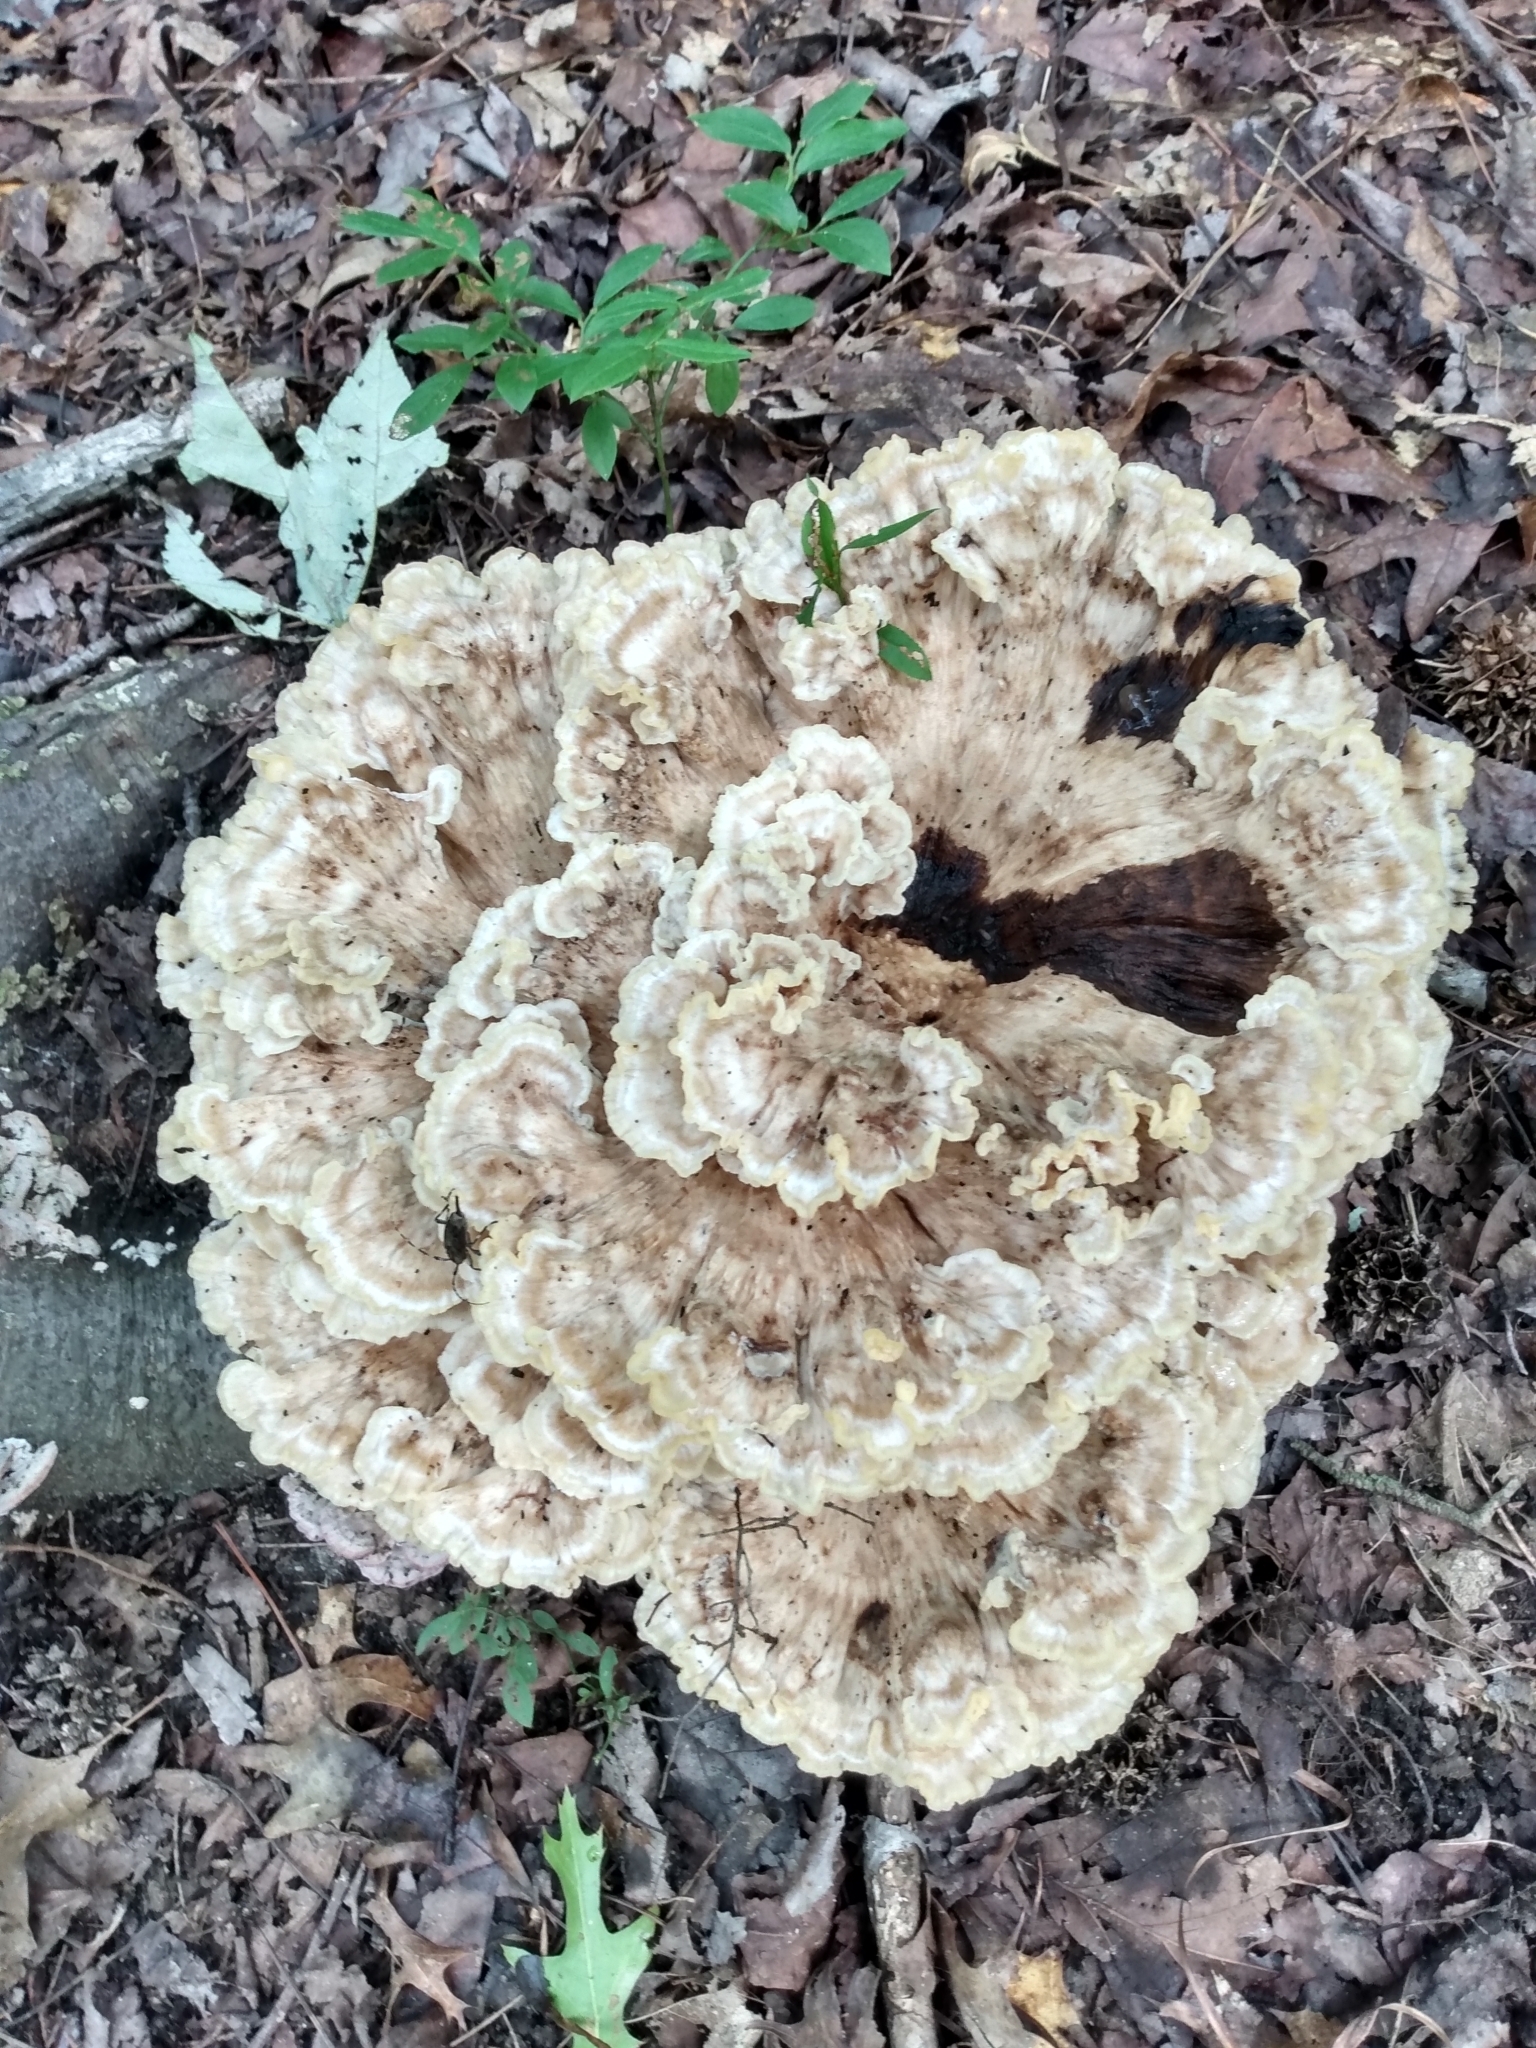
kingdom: Fungi
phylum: Basidiomycota
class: Agaricomycetes
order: Polyporales
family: Meripilaceae
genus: Meripilus
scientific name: Meripilus sumstinei
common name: Black-staining polypore
